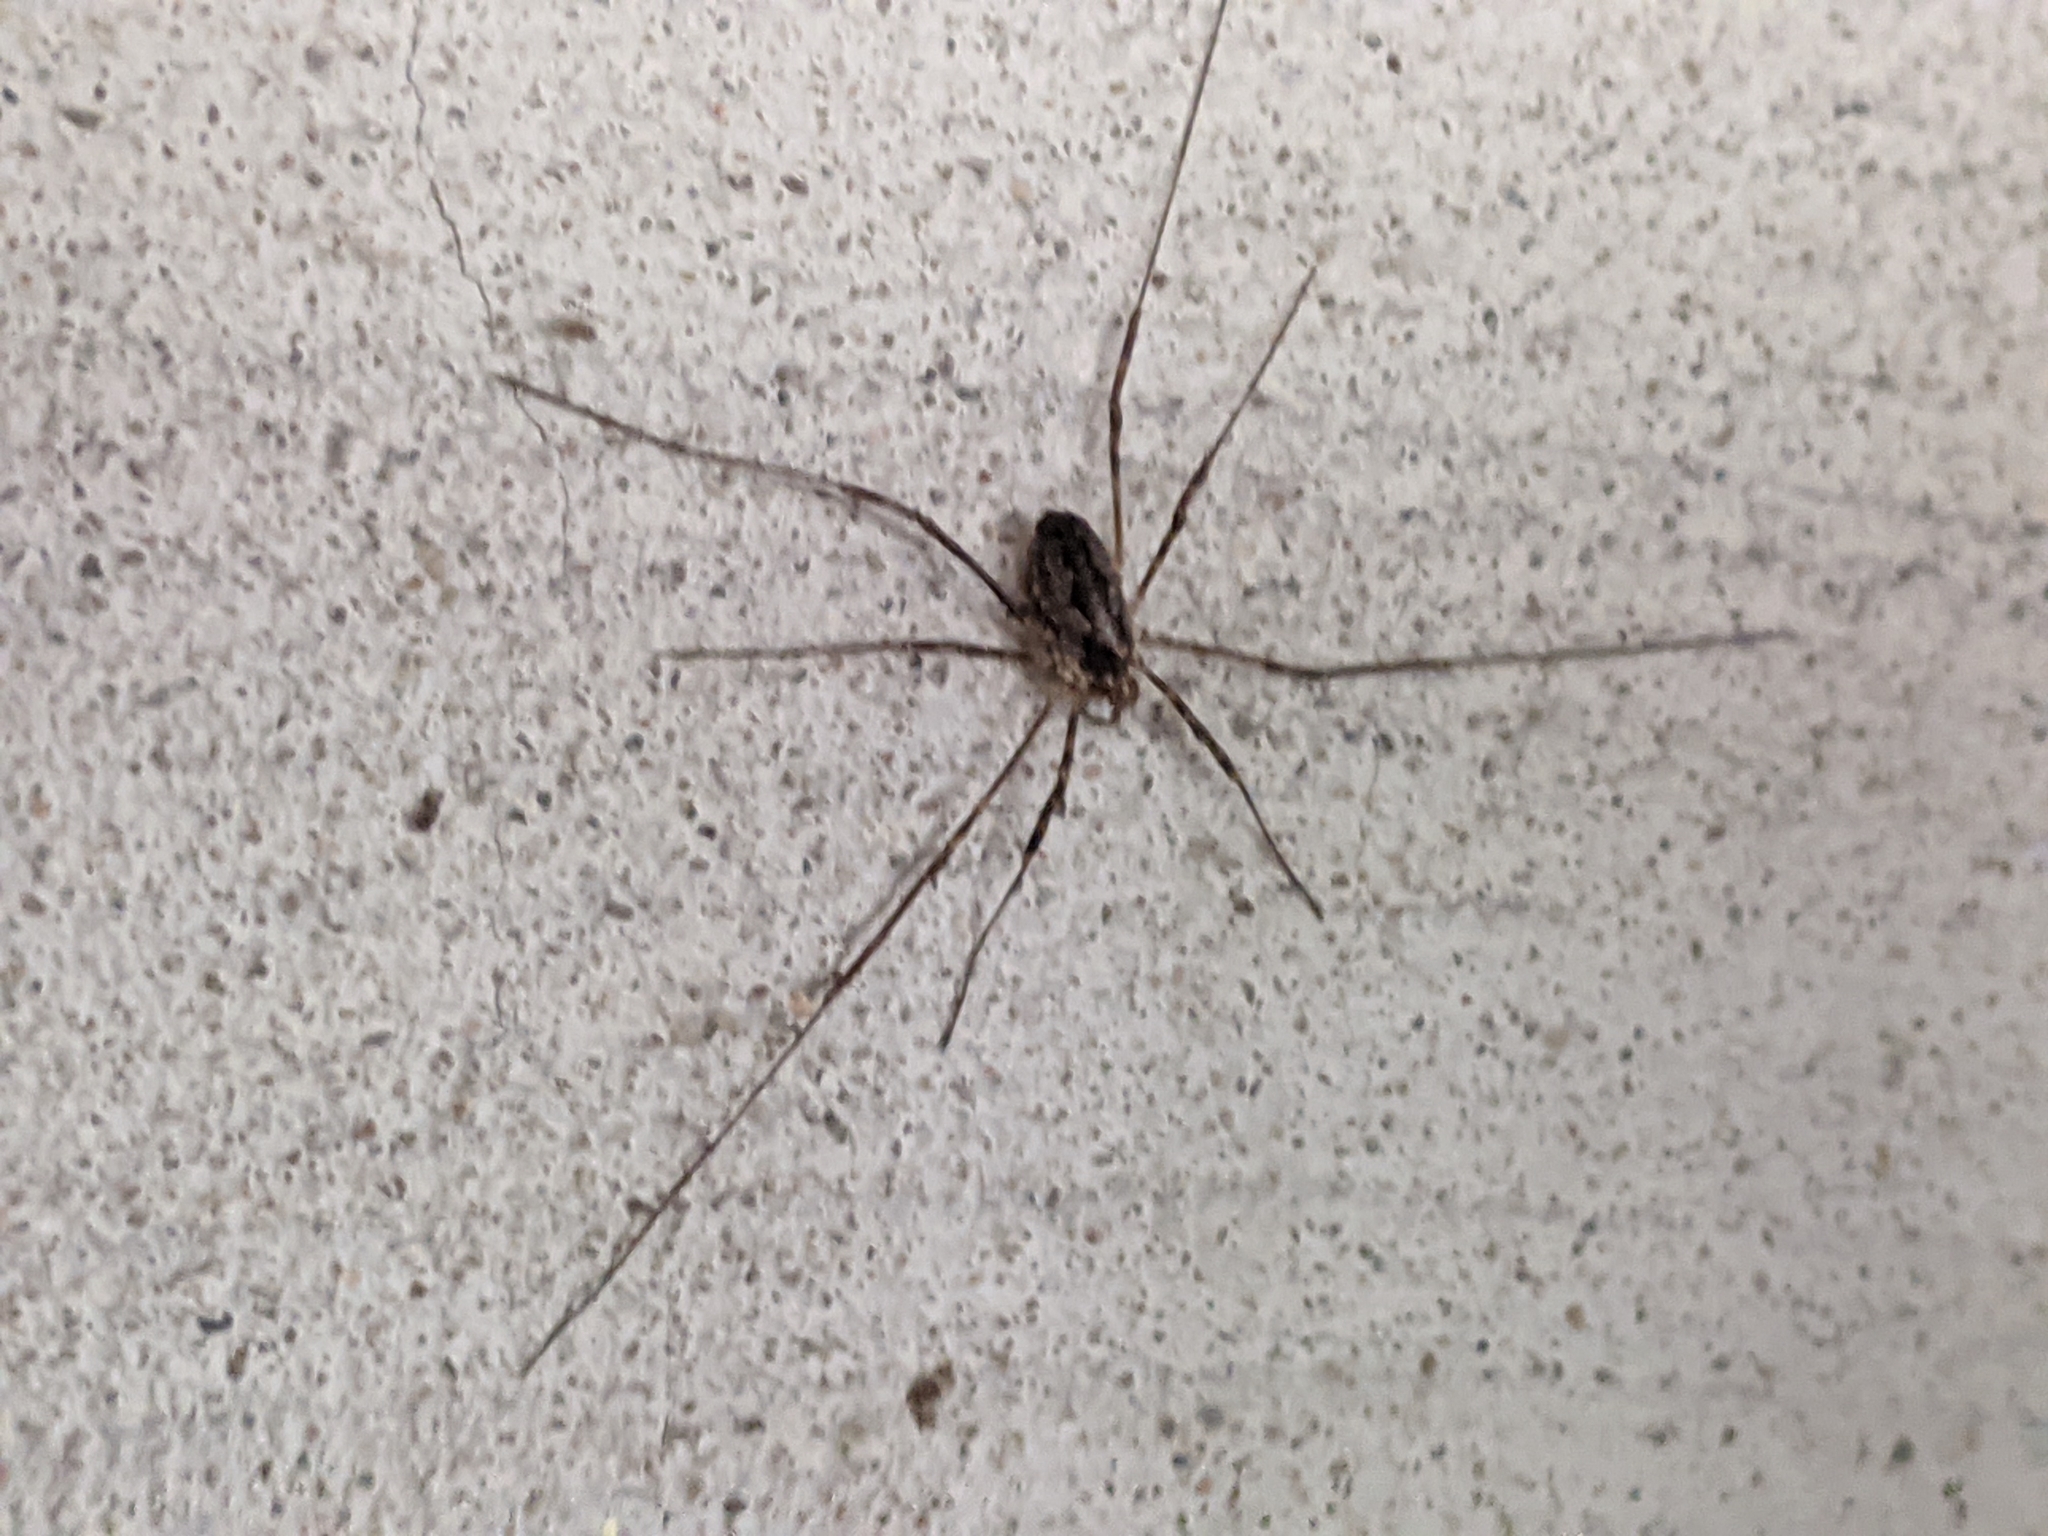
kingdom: Animalia
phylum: Arthropoda
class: Arachnida
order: Opiliones
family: Phalangiidae
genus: Odiellus
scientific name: Odiellus pictus
